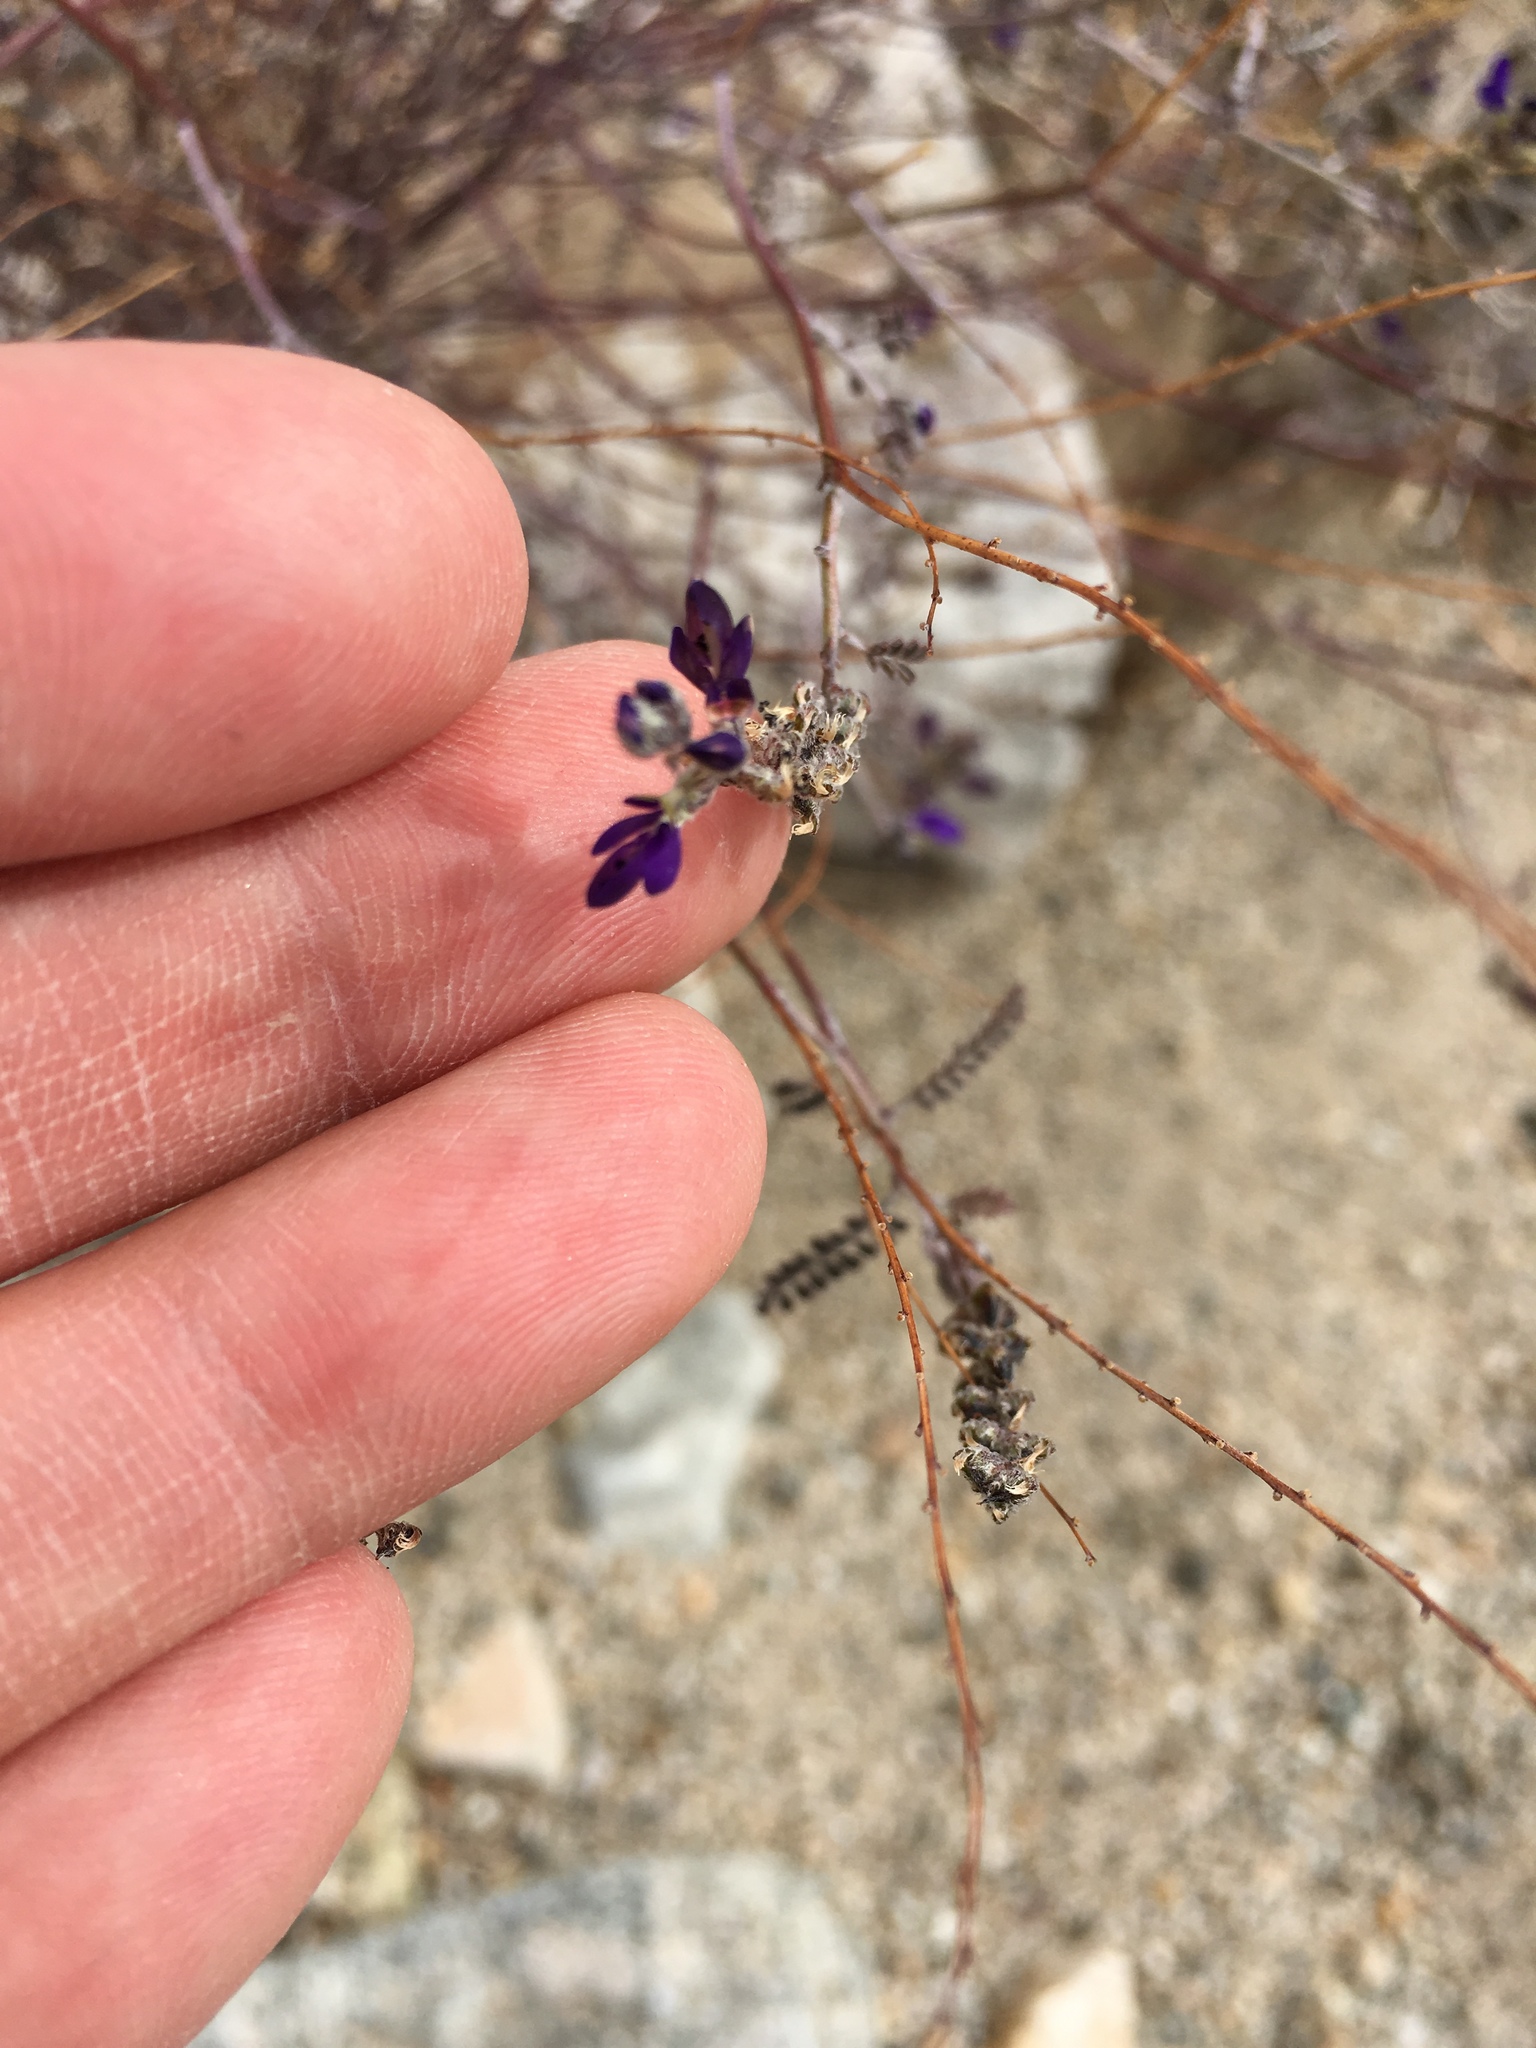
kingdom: Plantae
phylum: Tracheophyta
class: Magnoliopsida
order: Fabales
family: Fabaceae
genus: Marina
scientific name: Marina parryi
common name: Parry's marina
